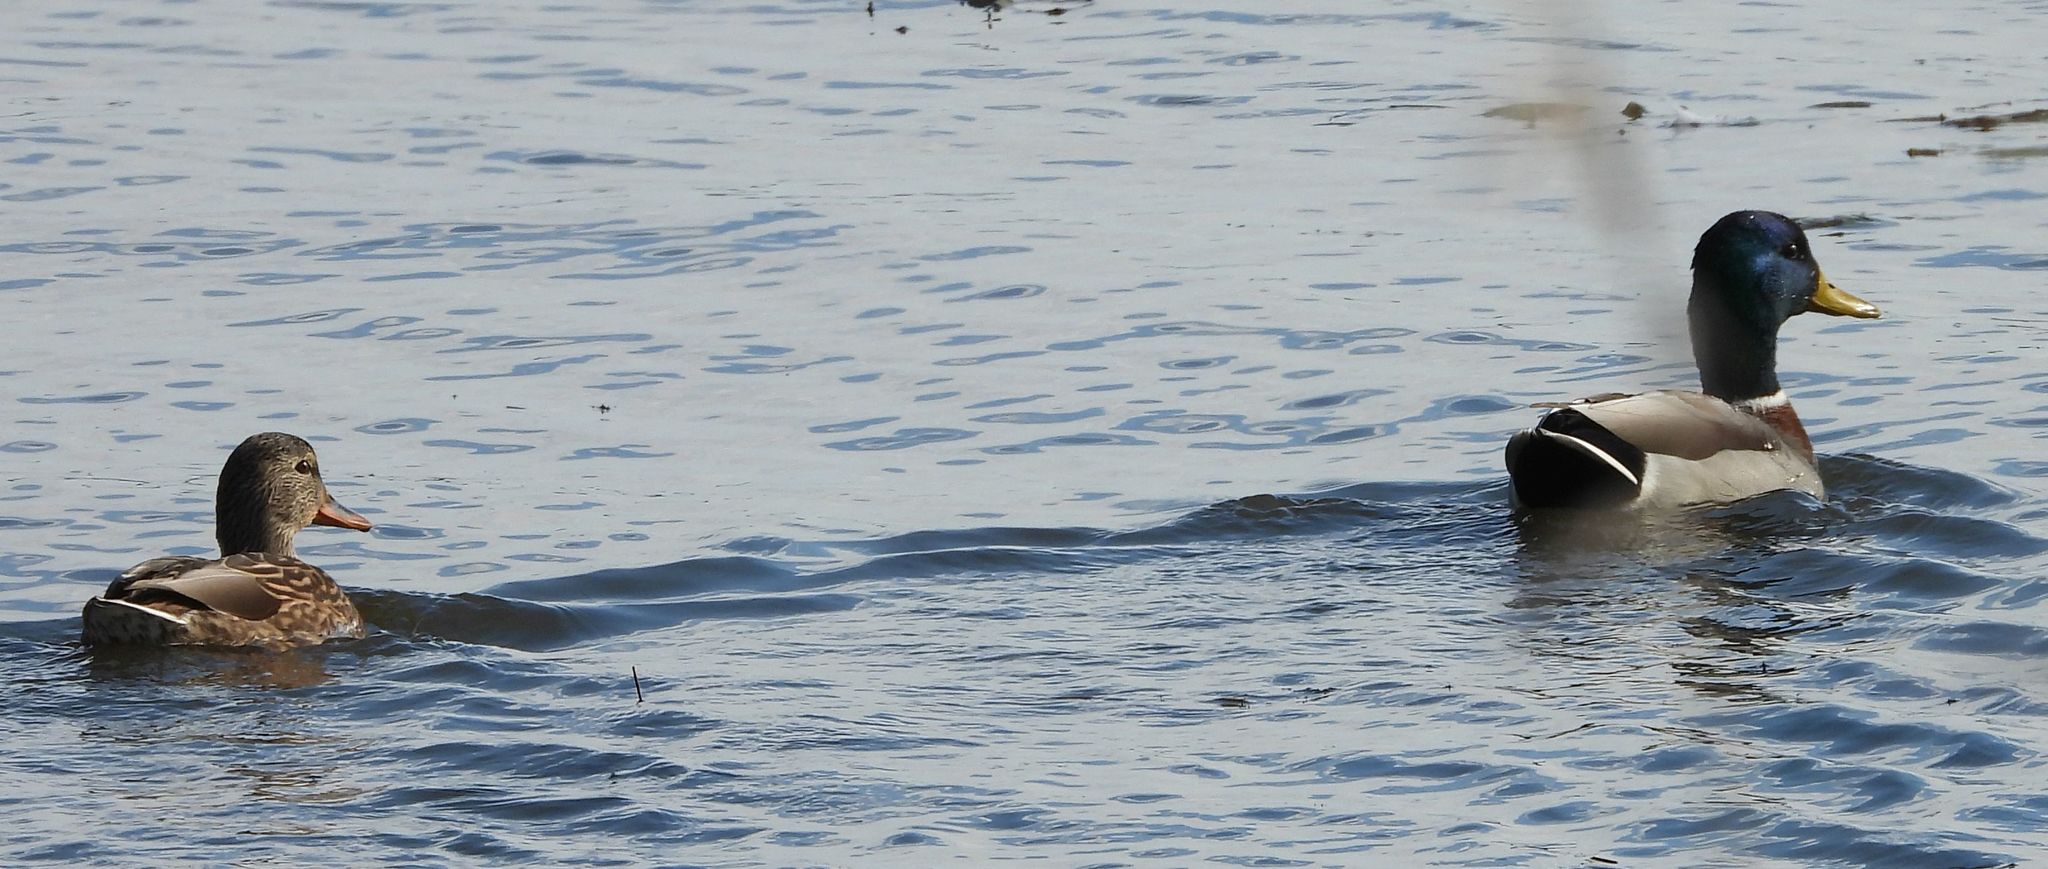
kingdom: Animalia
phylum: Chordata
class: Aves
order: Anseriformes
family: Anatidae
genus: Anas
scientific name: Anas platyrhynchos
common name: Mallard
